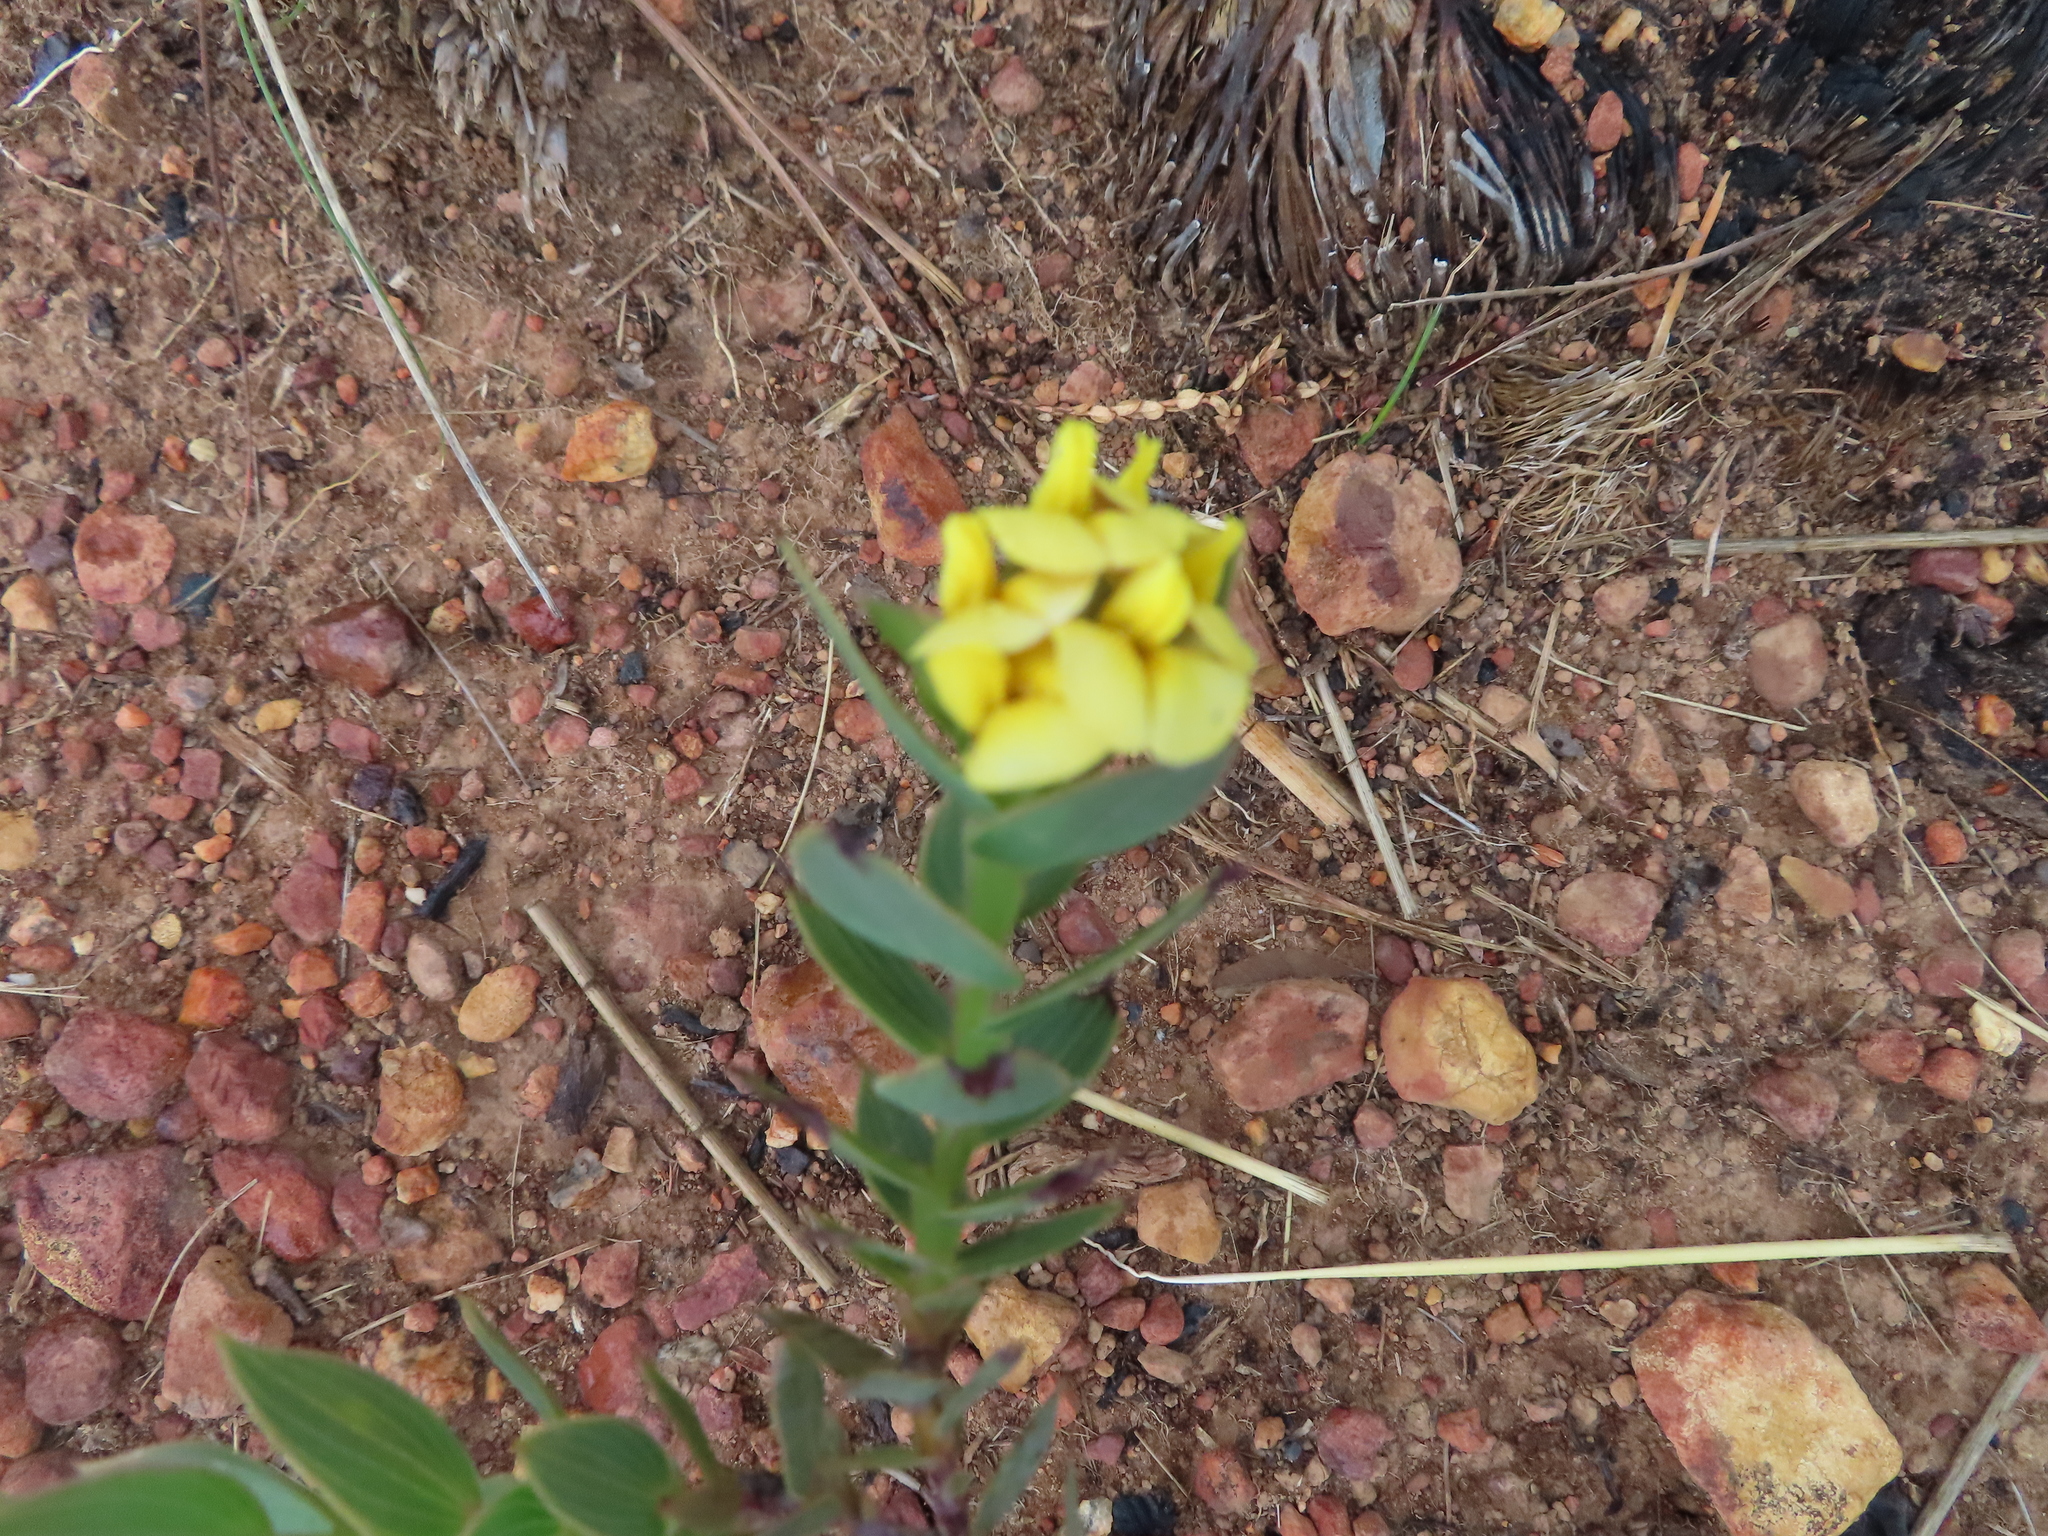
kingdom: Plantae
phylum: Tracheophyta
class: Magnoliopsida
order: Fabales
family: Fabaceae
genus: Aspalathus
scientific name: Aspalathus crenata
